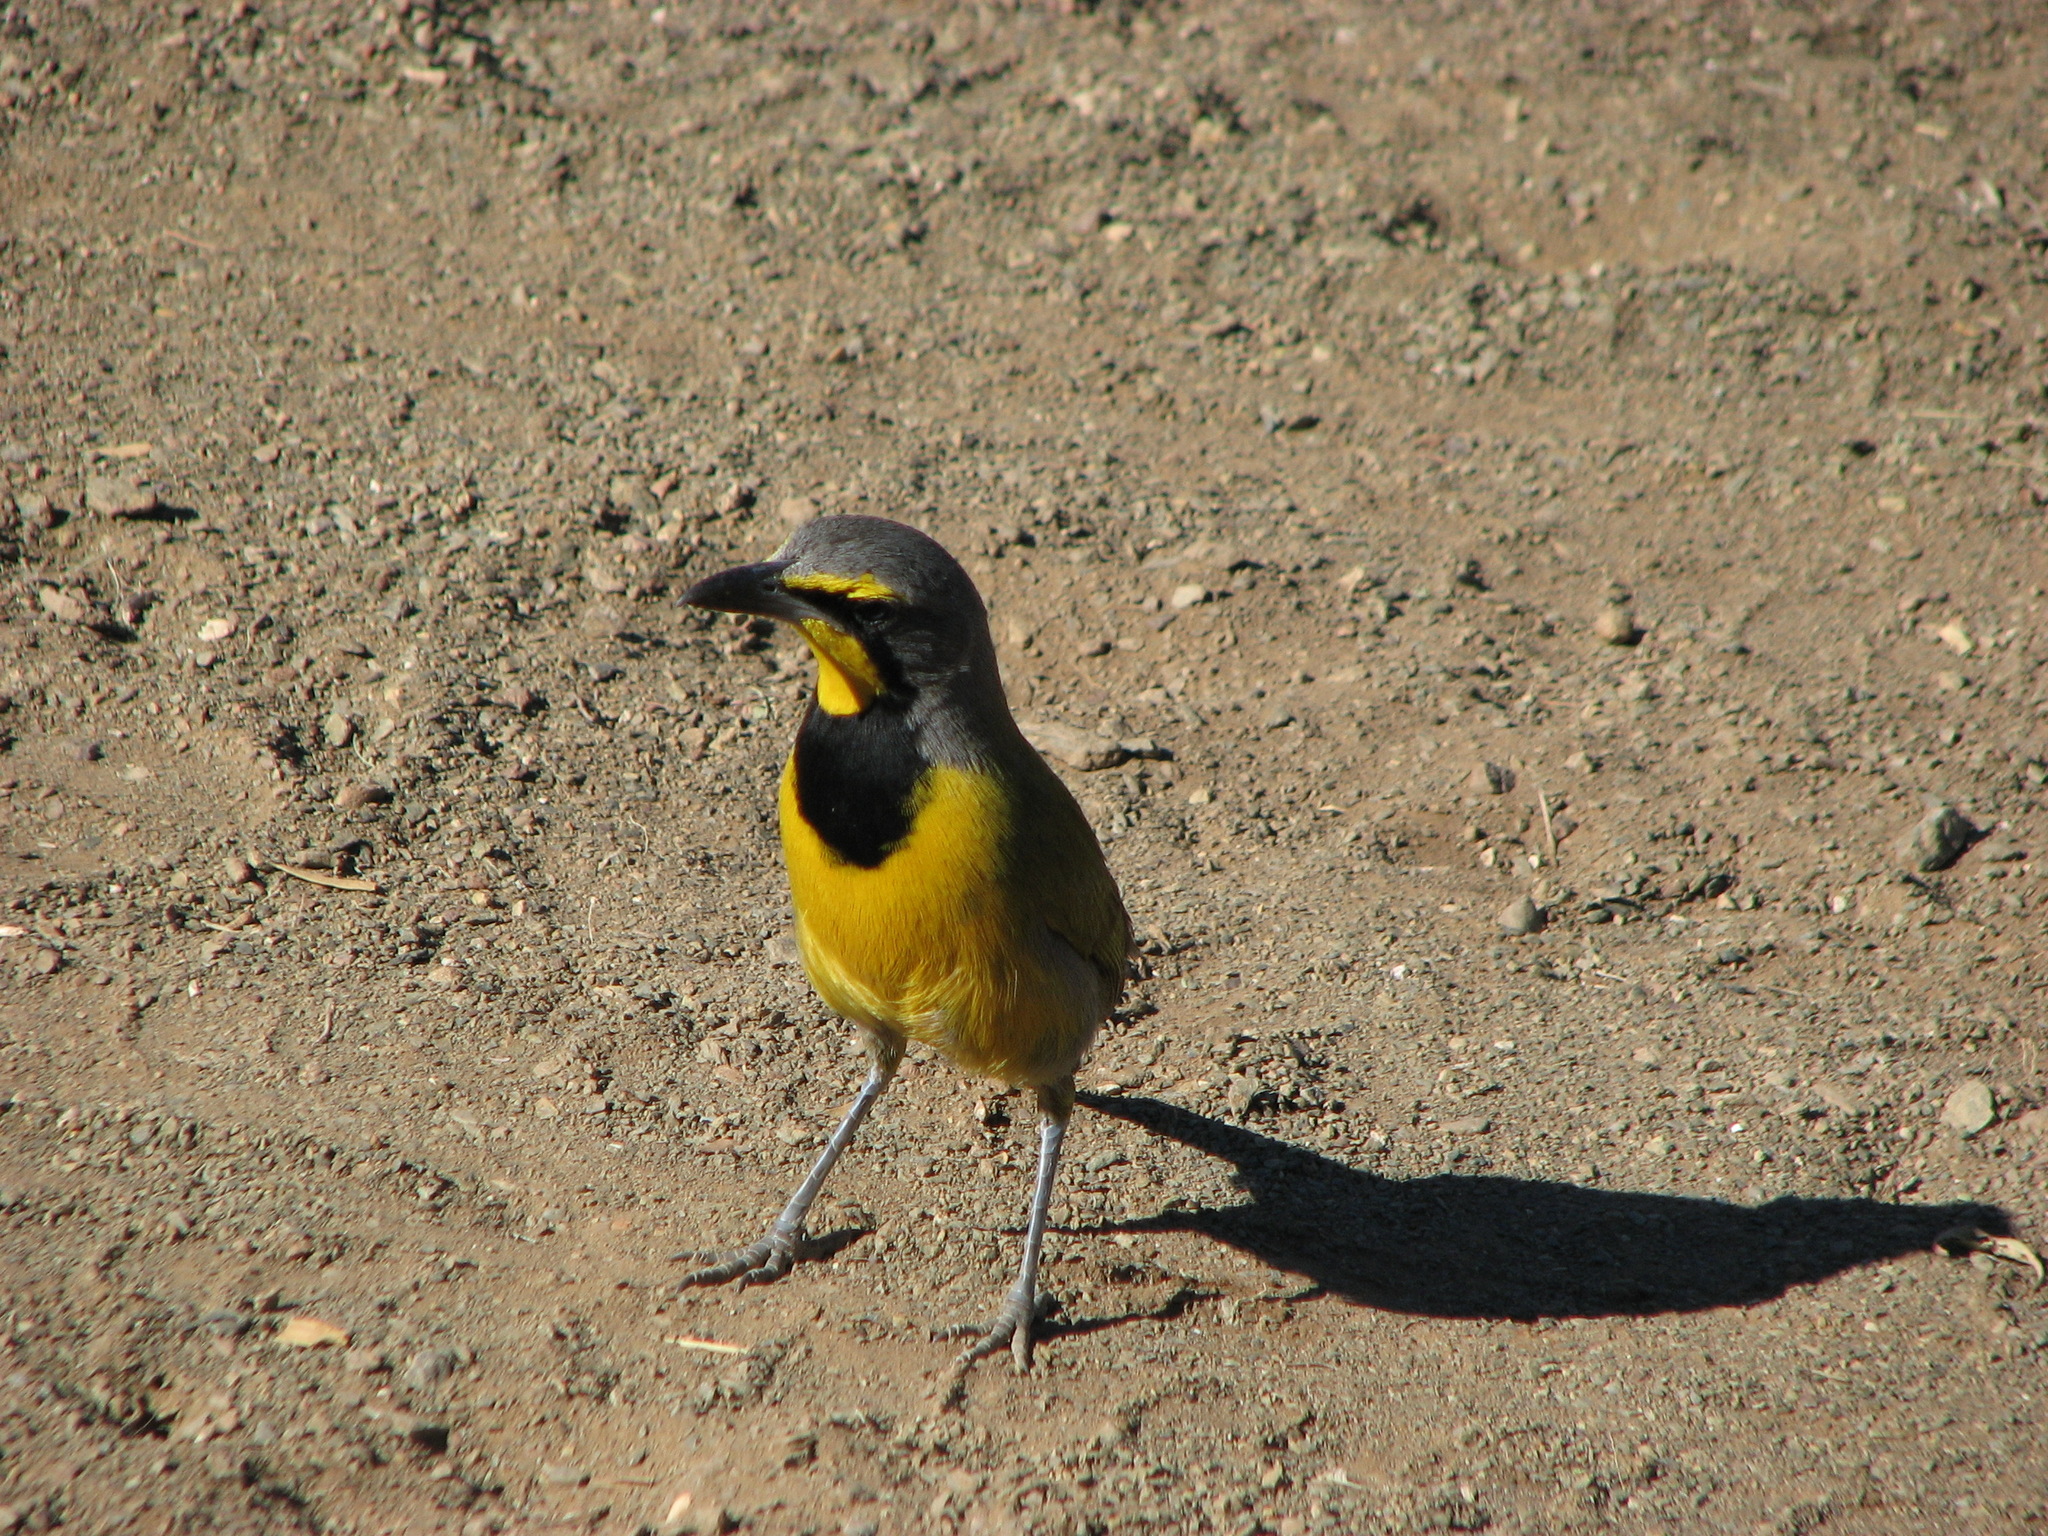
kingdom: Animalia
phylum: Chordata
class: Aves
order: Passeriformes
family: Malaconotidae
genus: Telophorus
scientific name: Telophorus zeylonus
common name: Bokmakierie
